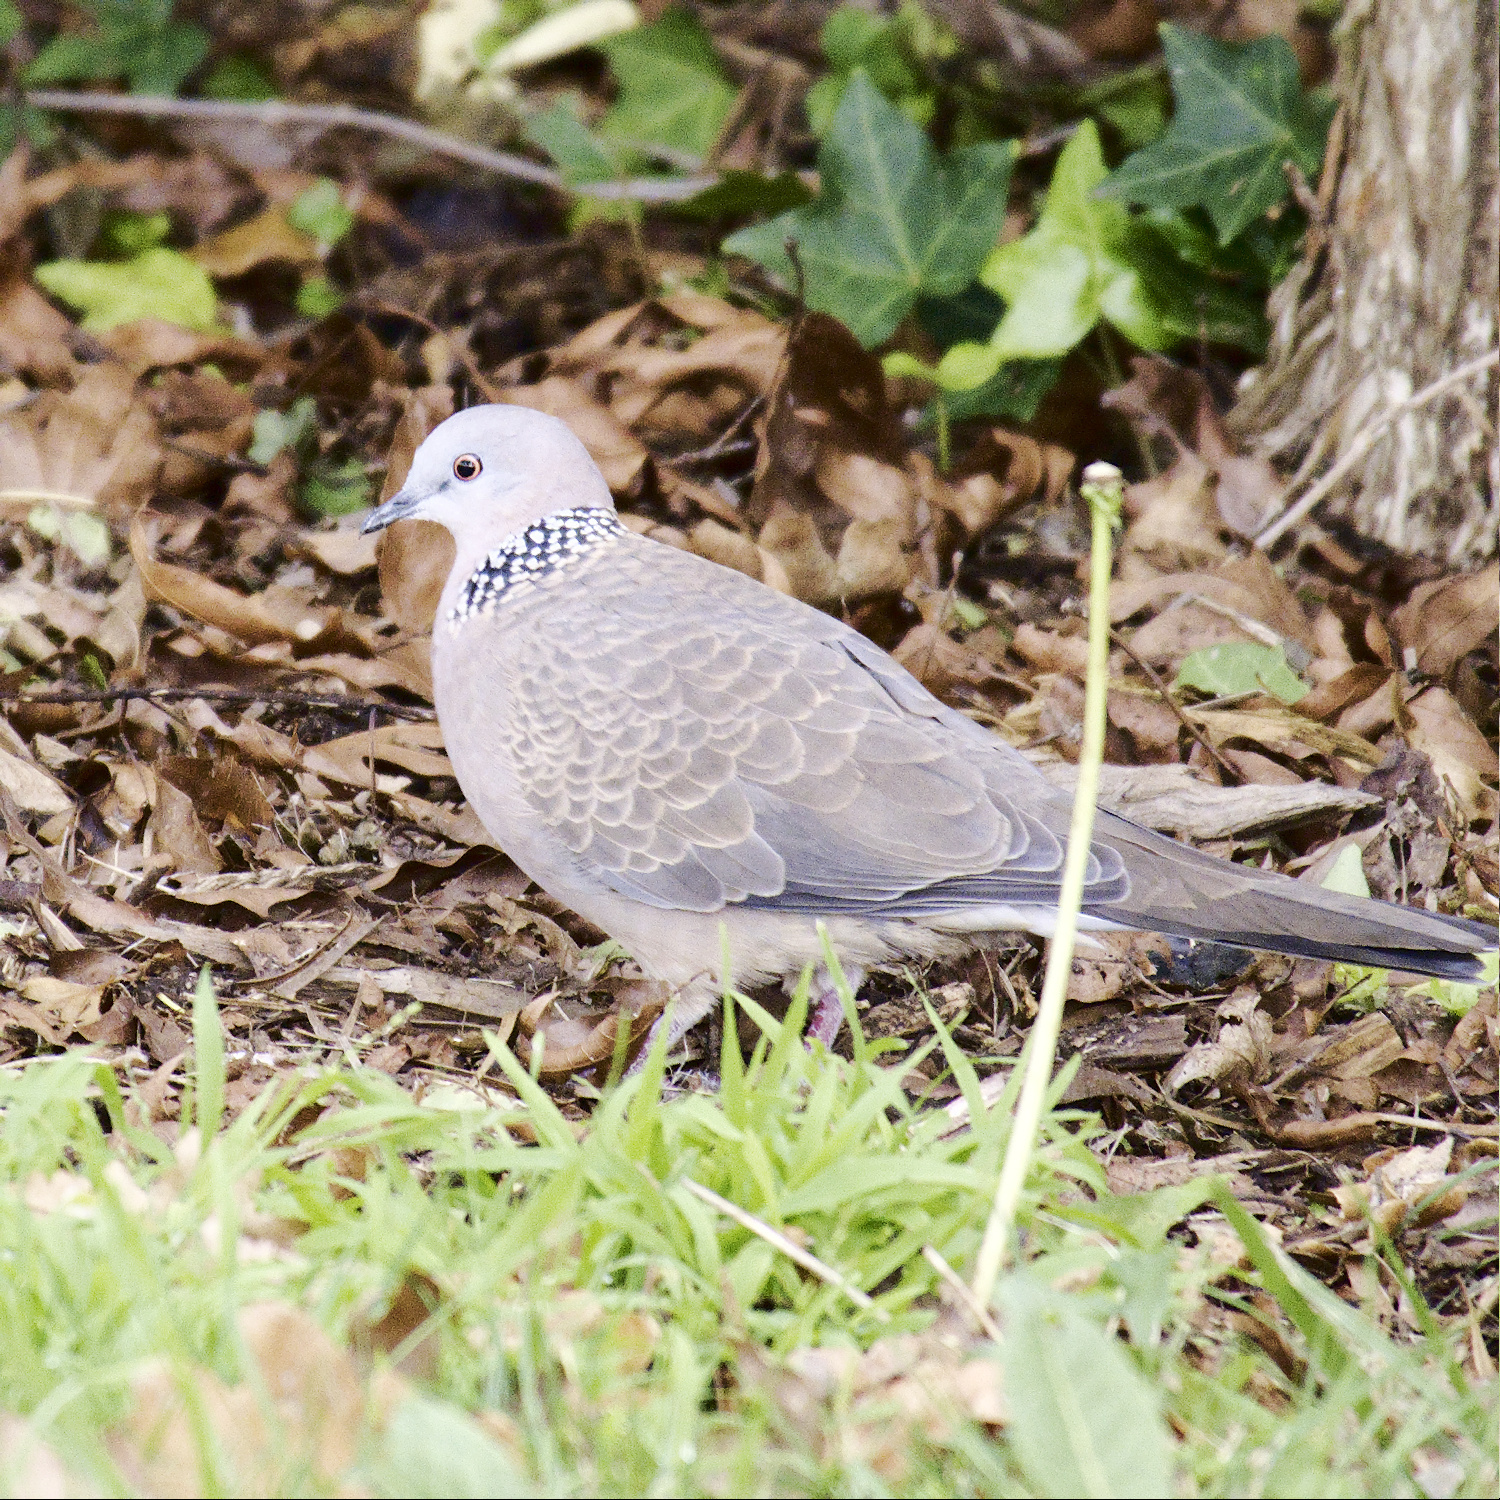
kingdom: Animalia
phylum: Chordata
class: Aves
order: Columbiformes
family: Columbidae
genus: Spilopelia
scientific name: Spilopelia chinensis
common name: Spotted dove
